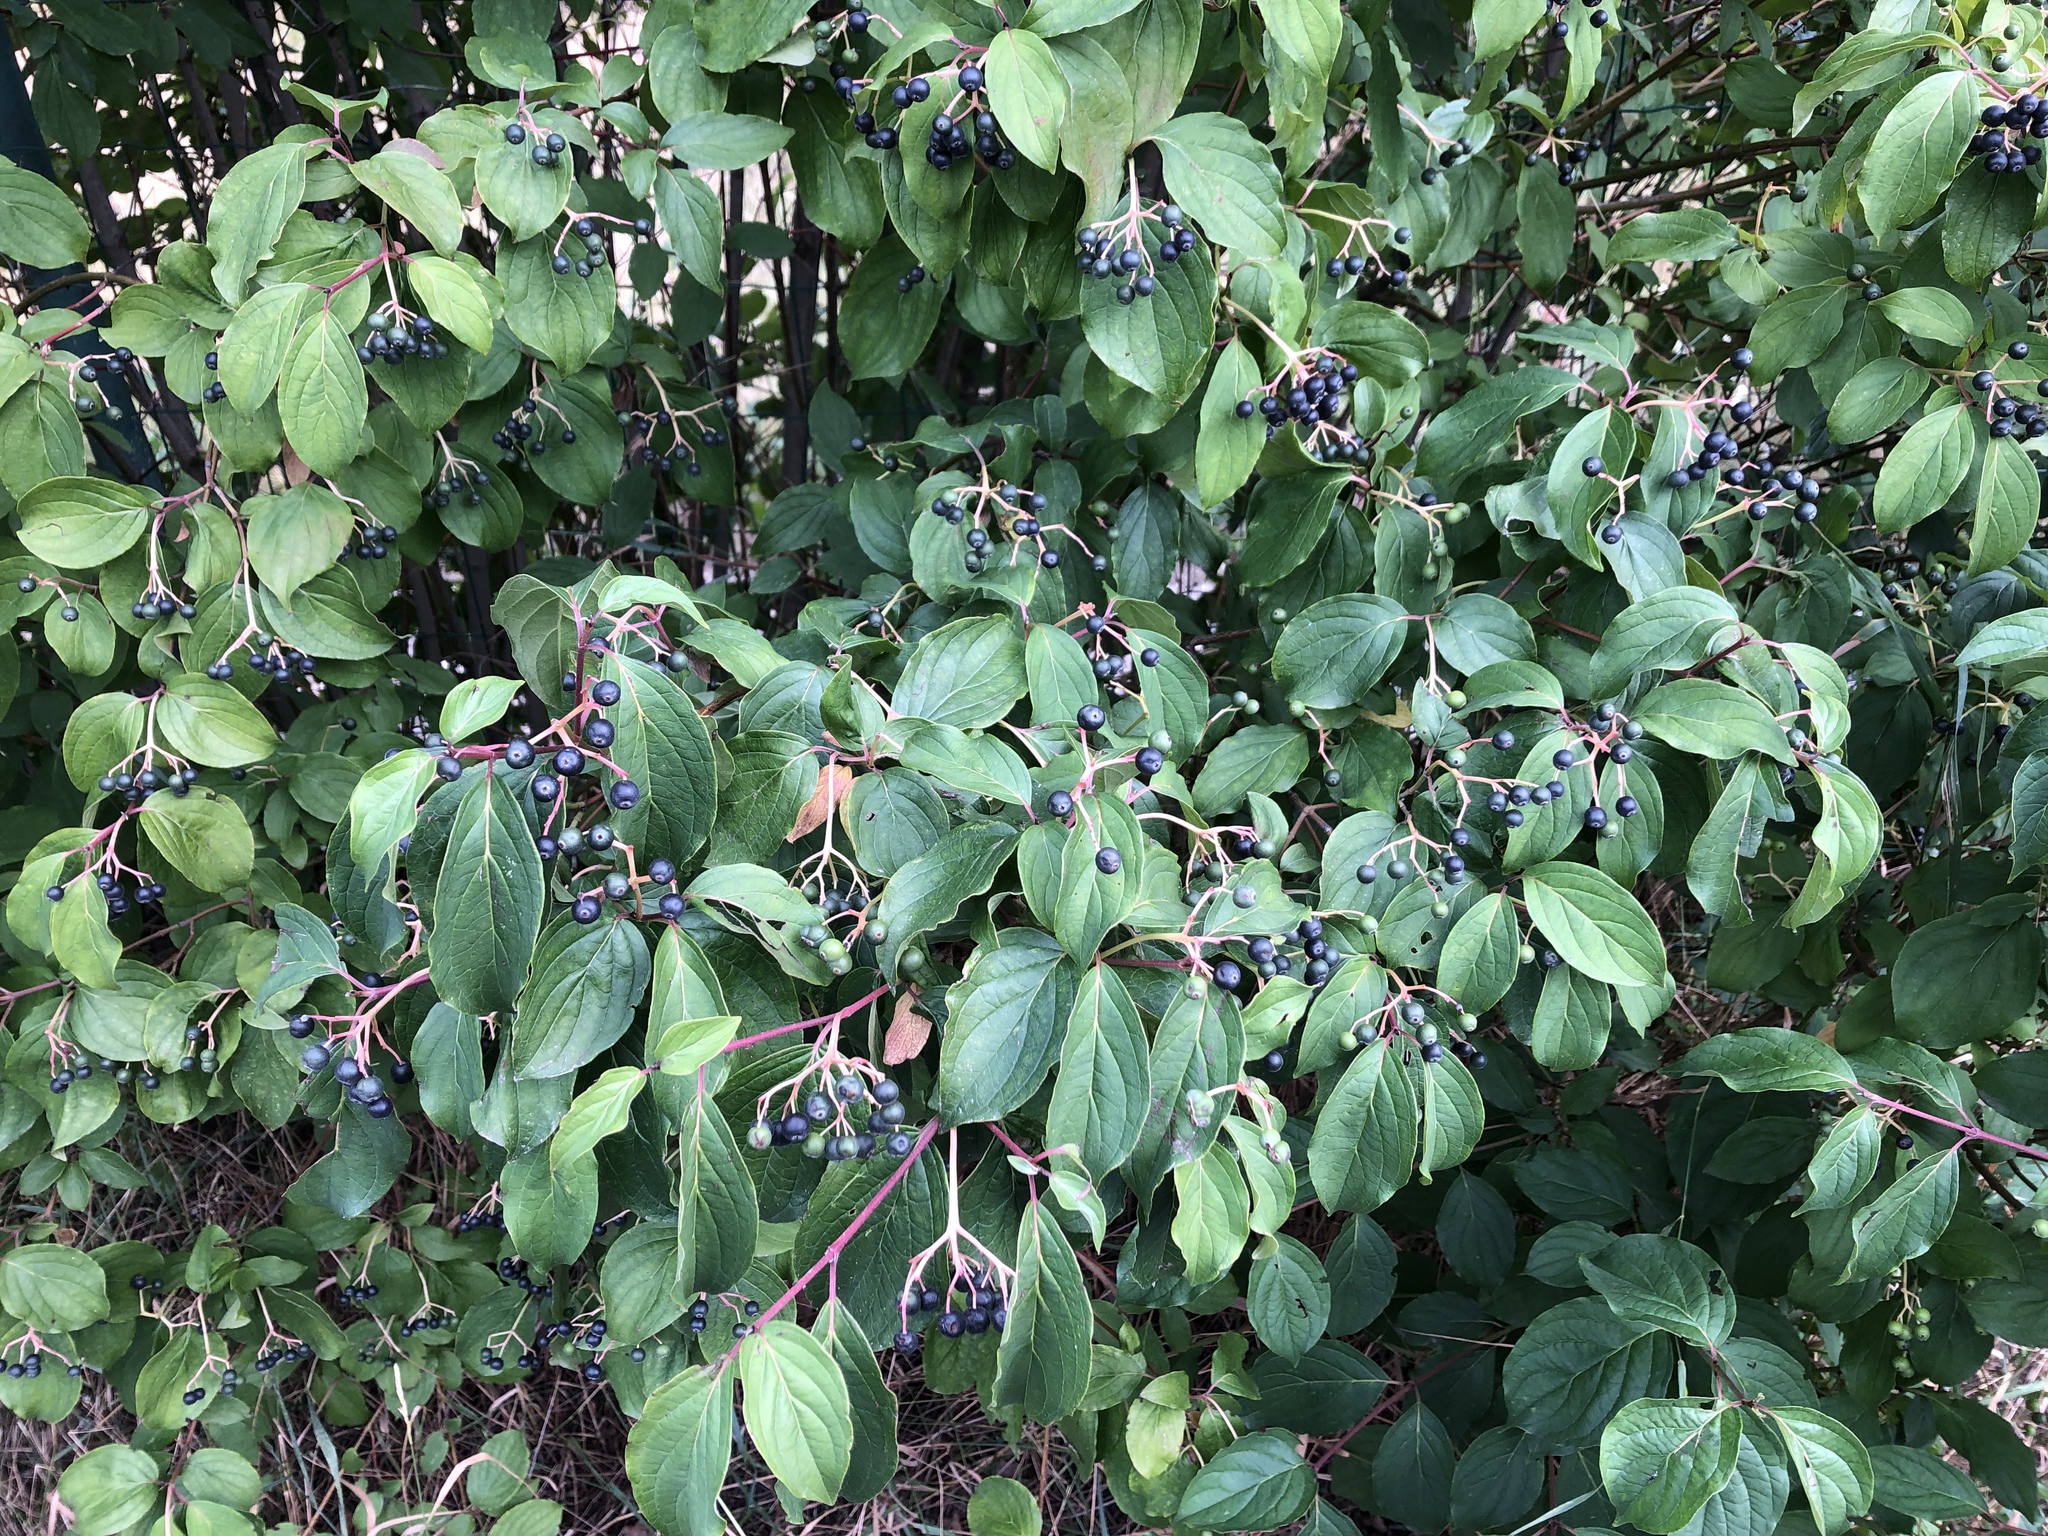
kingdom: Plantae
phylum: Tracheophyta
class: Magnoliopsida
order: Cornales
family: Cornaceae
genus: Cornus
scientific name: Cornus sanguinea
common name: Dogwood
